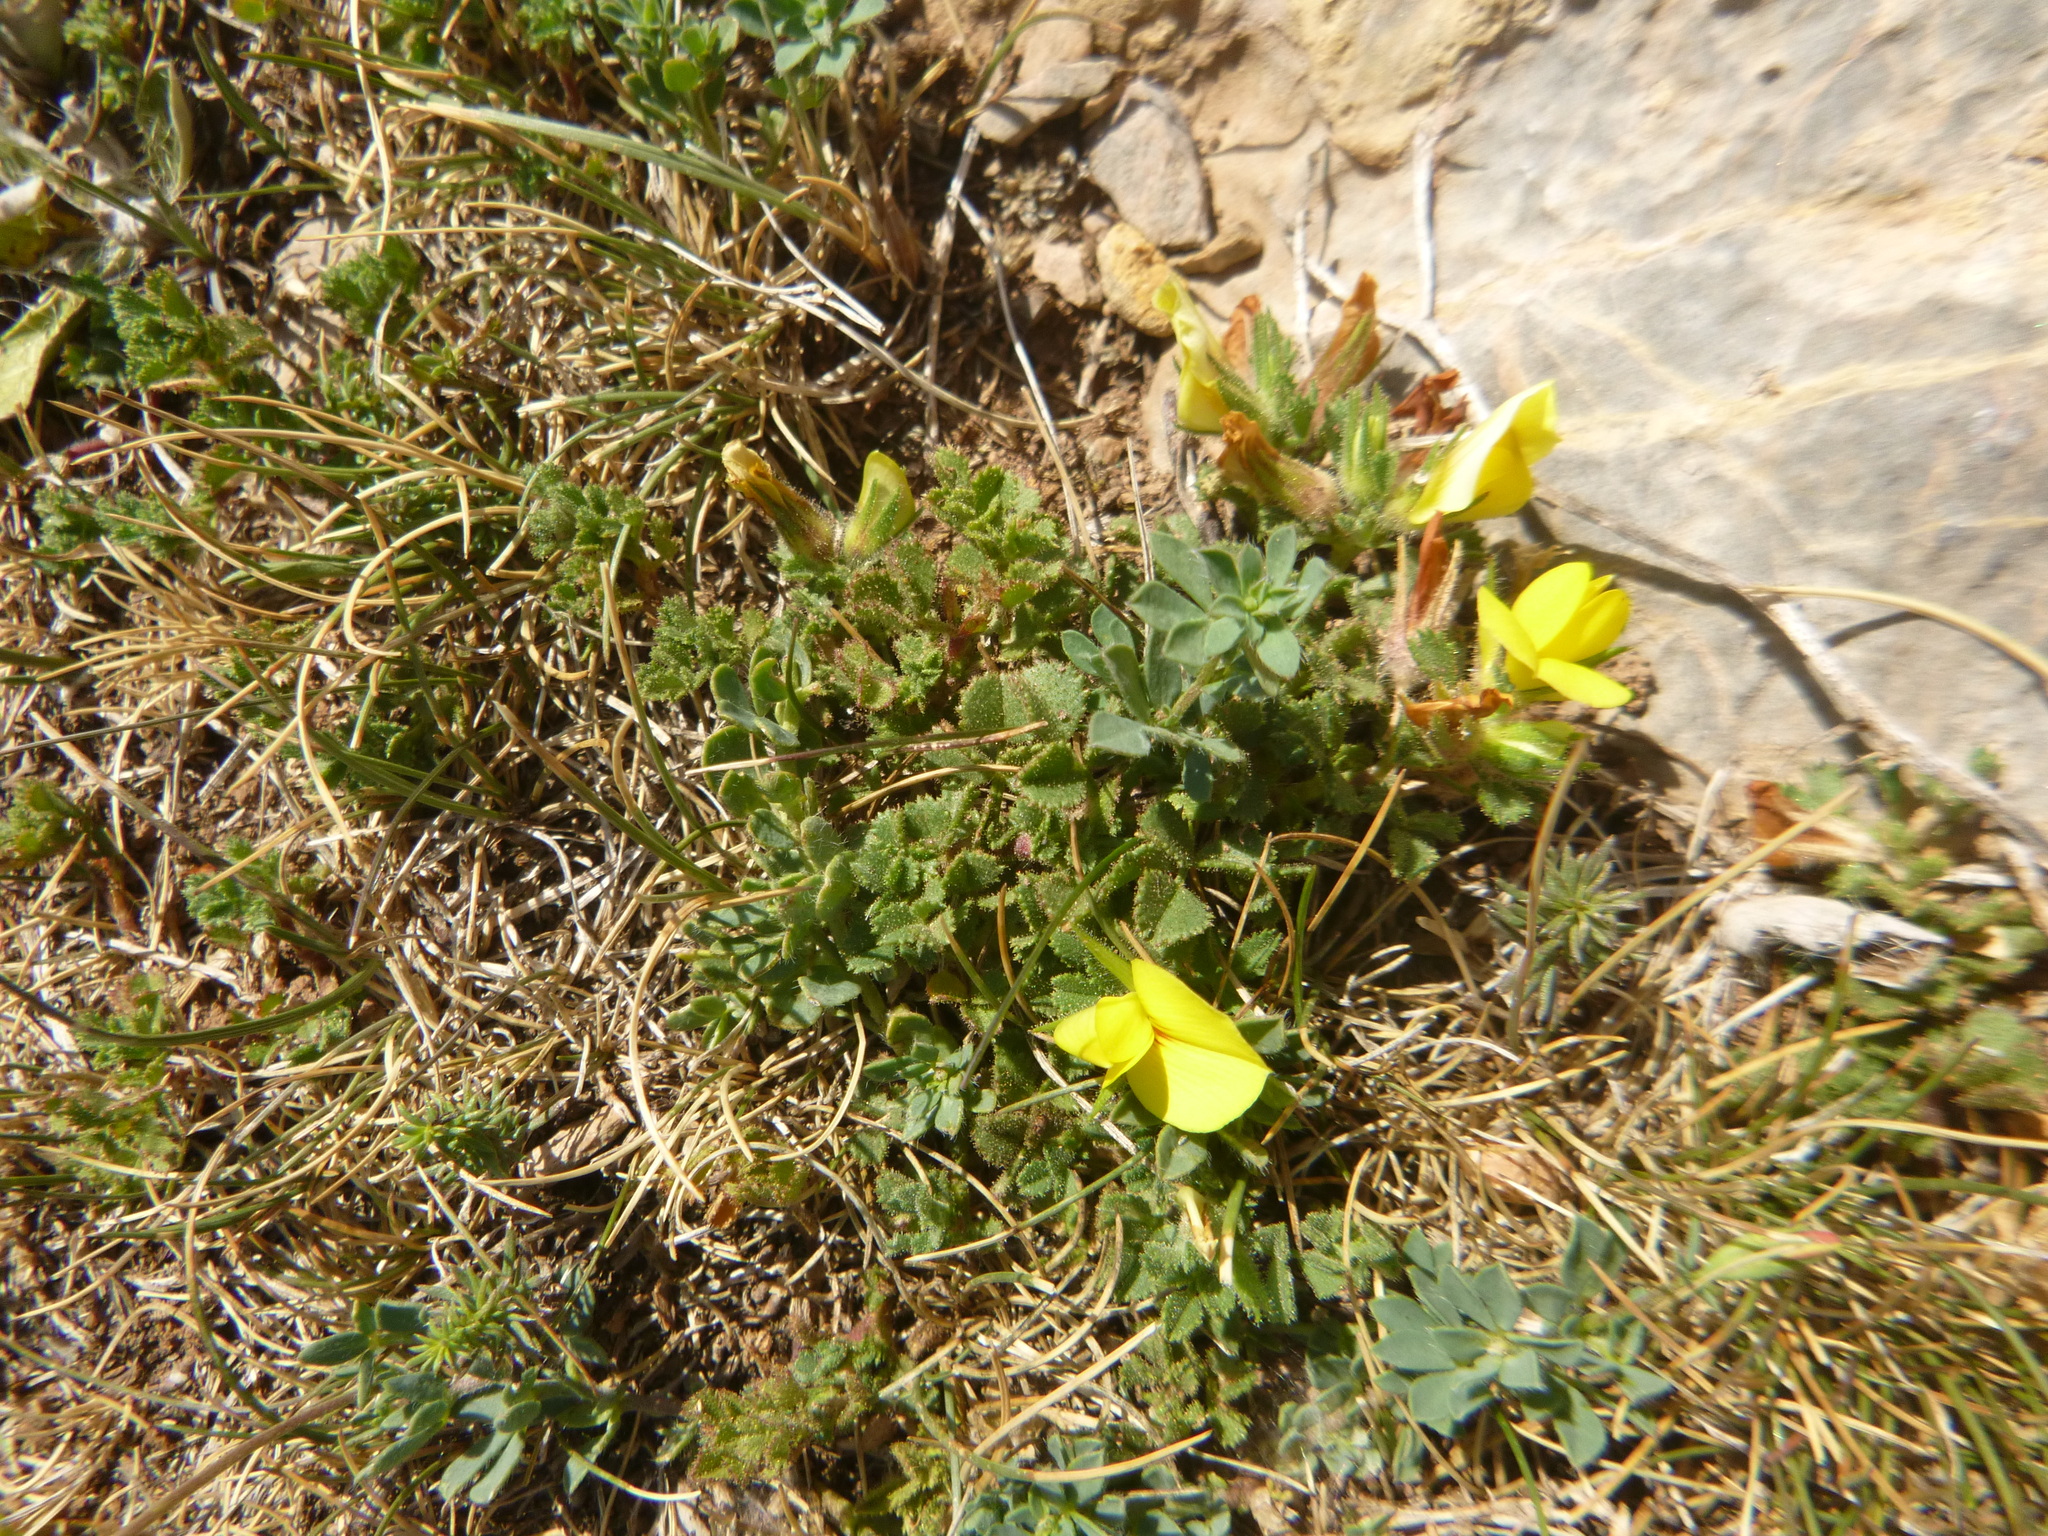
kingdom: Plantae
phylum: Tracheophyta
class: Magnoliopsida
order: Fabales
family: Fabaceae
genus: Ononis
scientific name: Ononis minutissima
